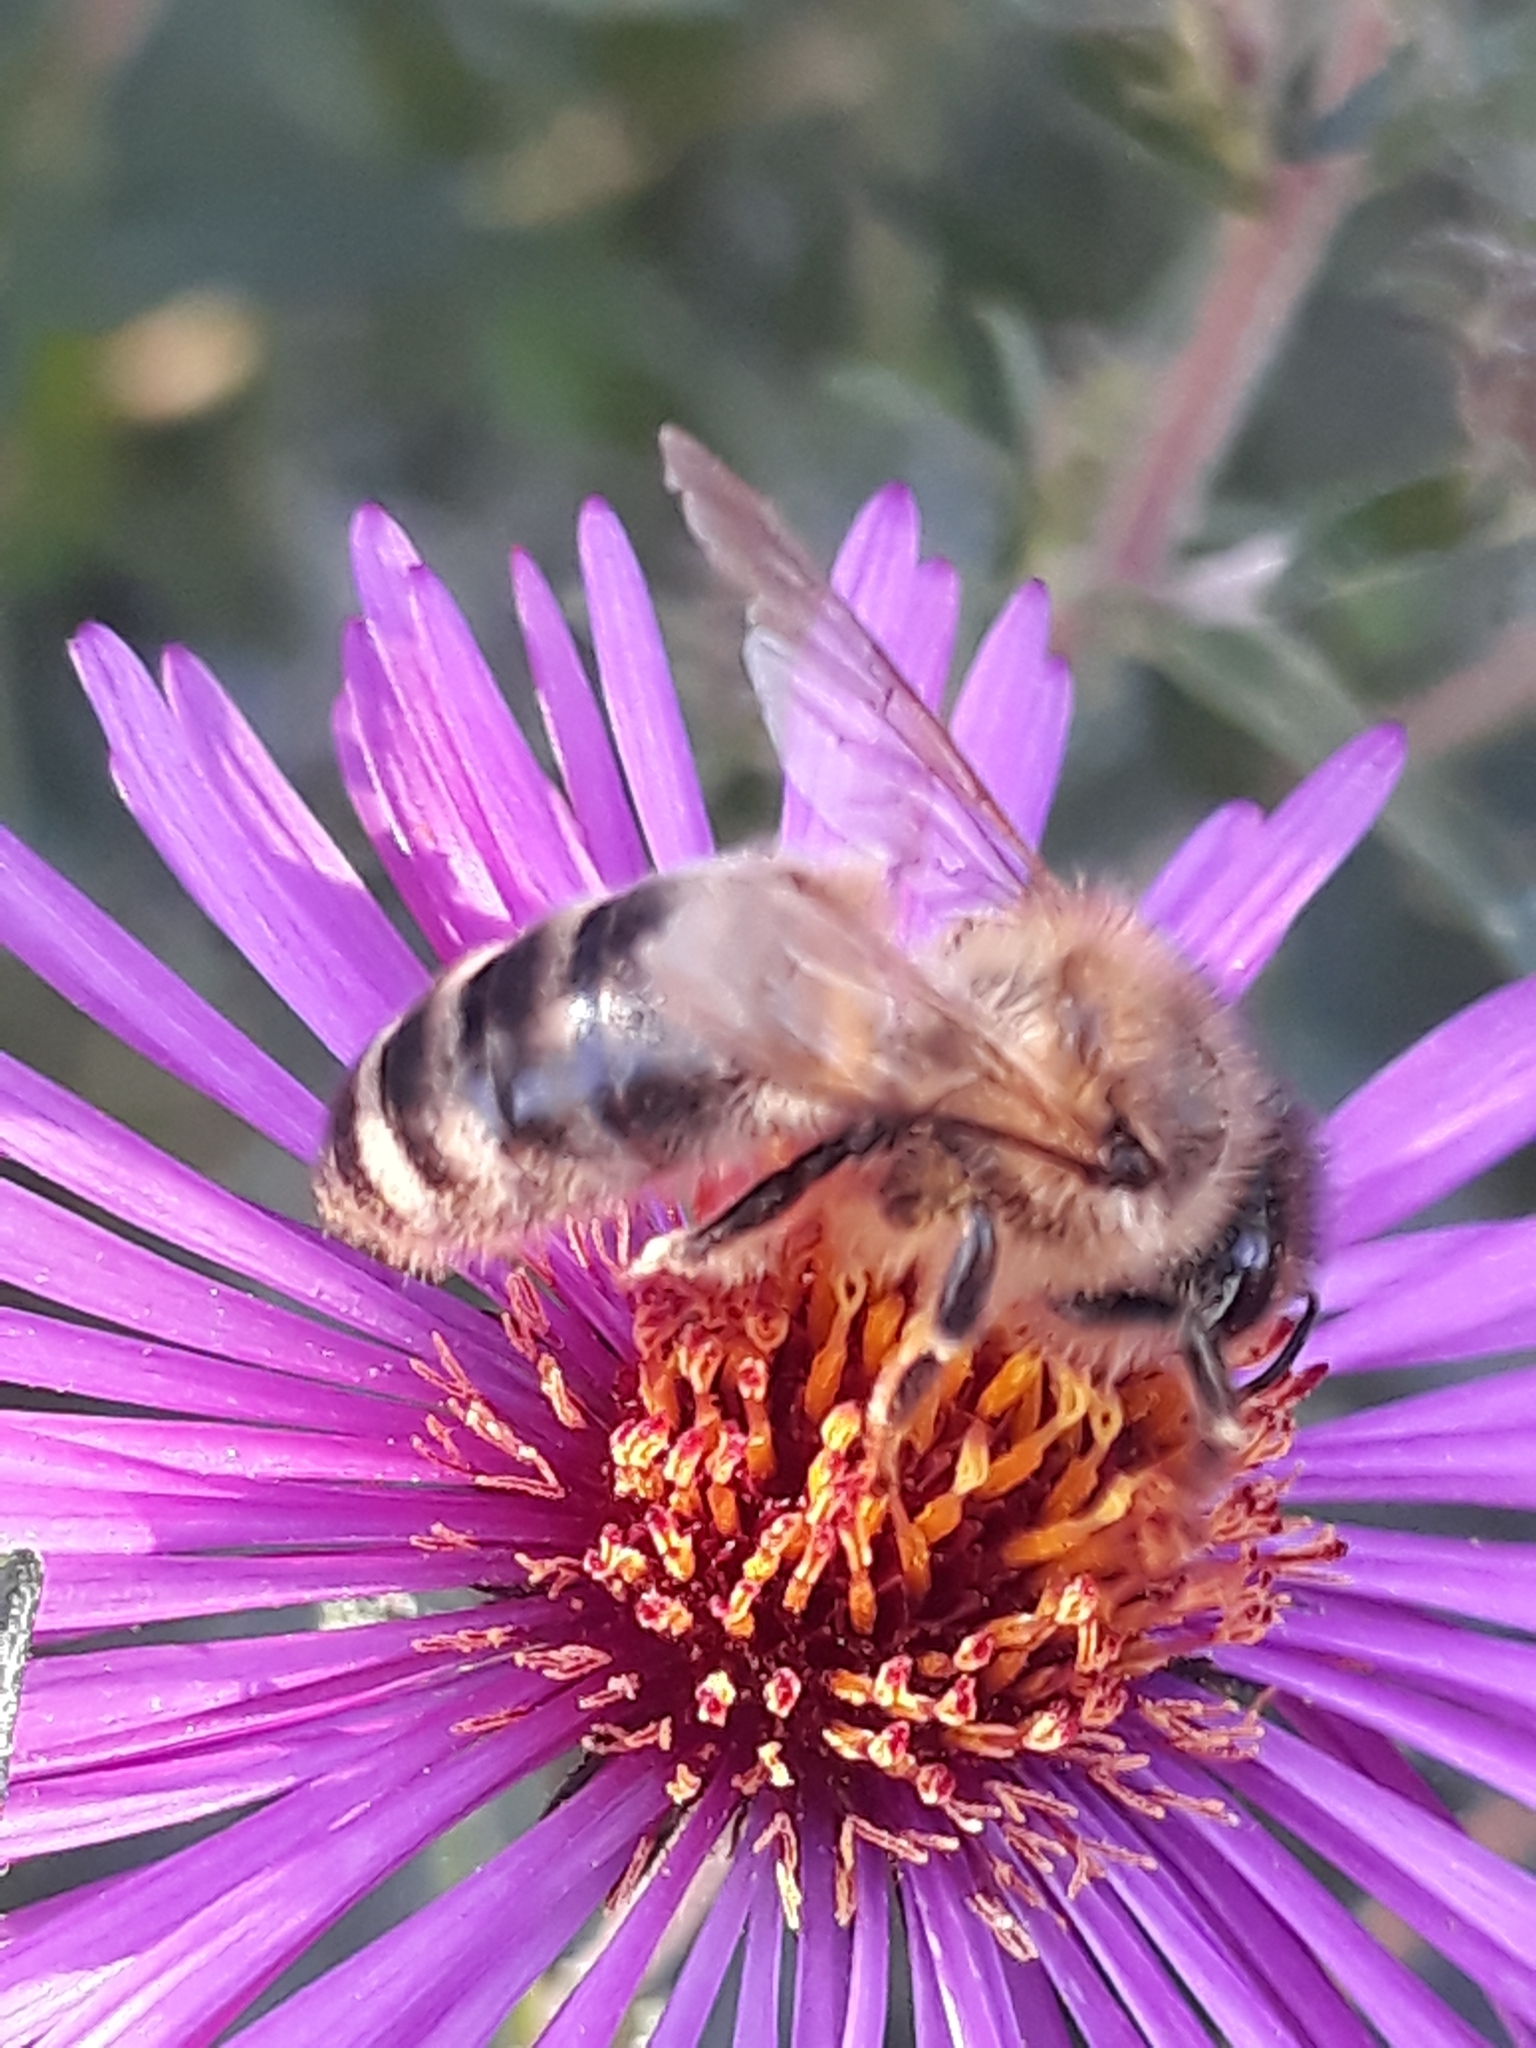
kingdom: Animalia
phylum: Arthropoda
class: Insecta
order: Hymenoptera
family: Apidae
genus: Apis
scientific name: Apis mellifera
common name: Honey bee
